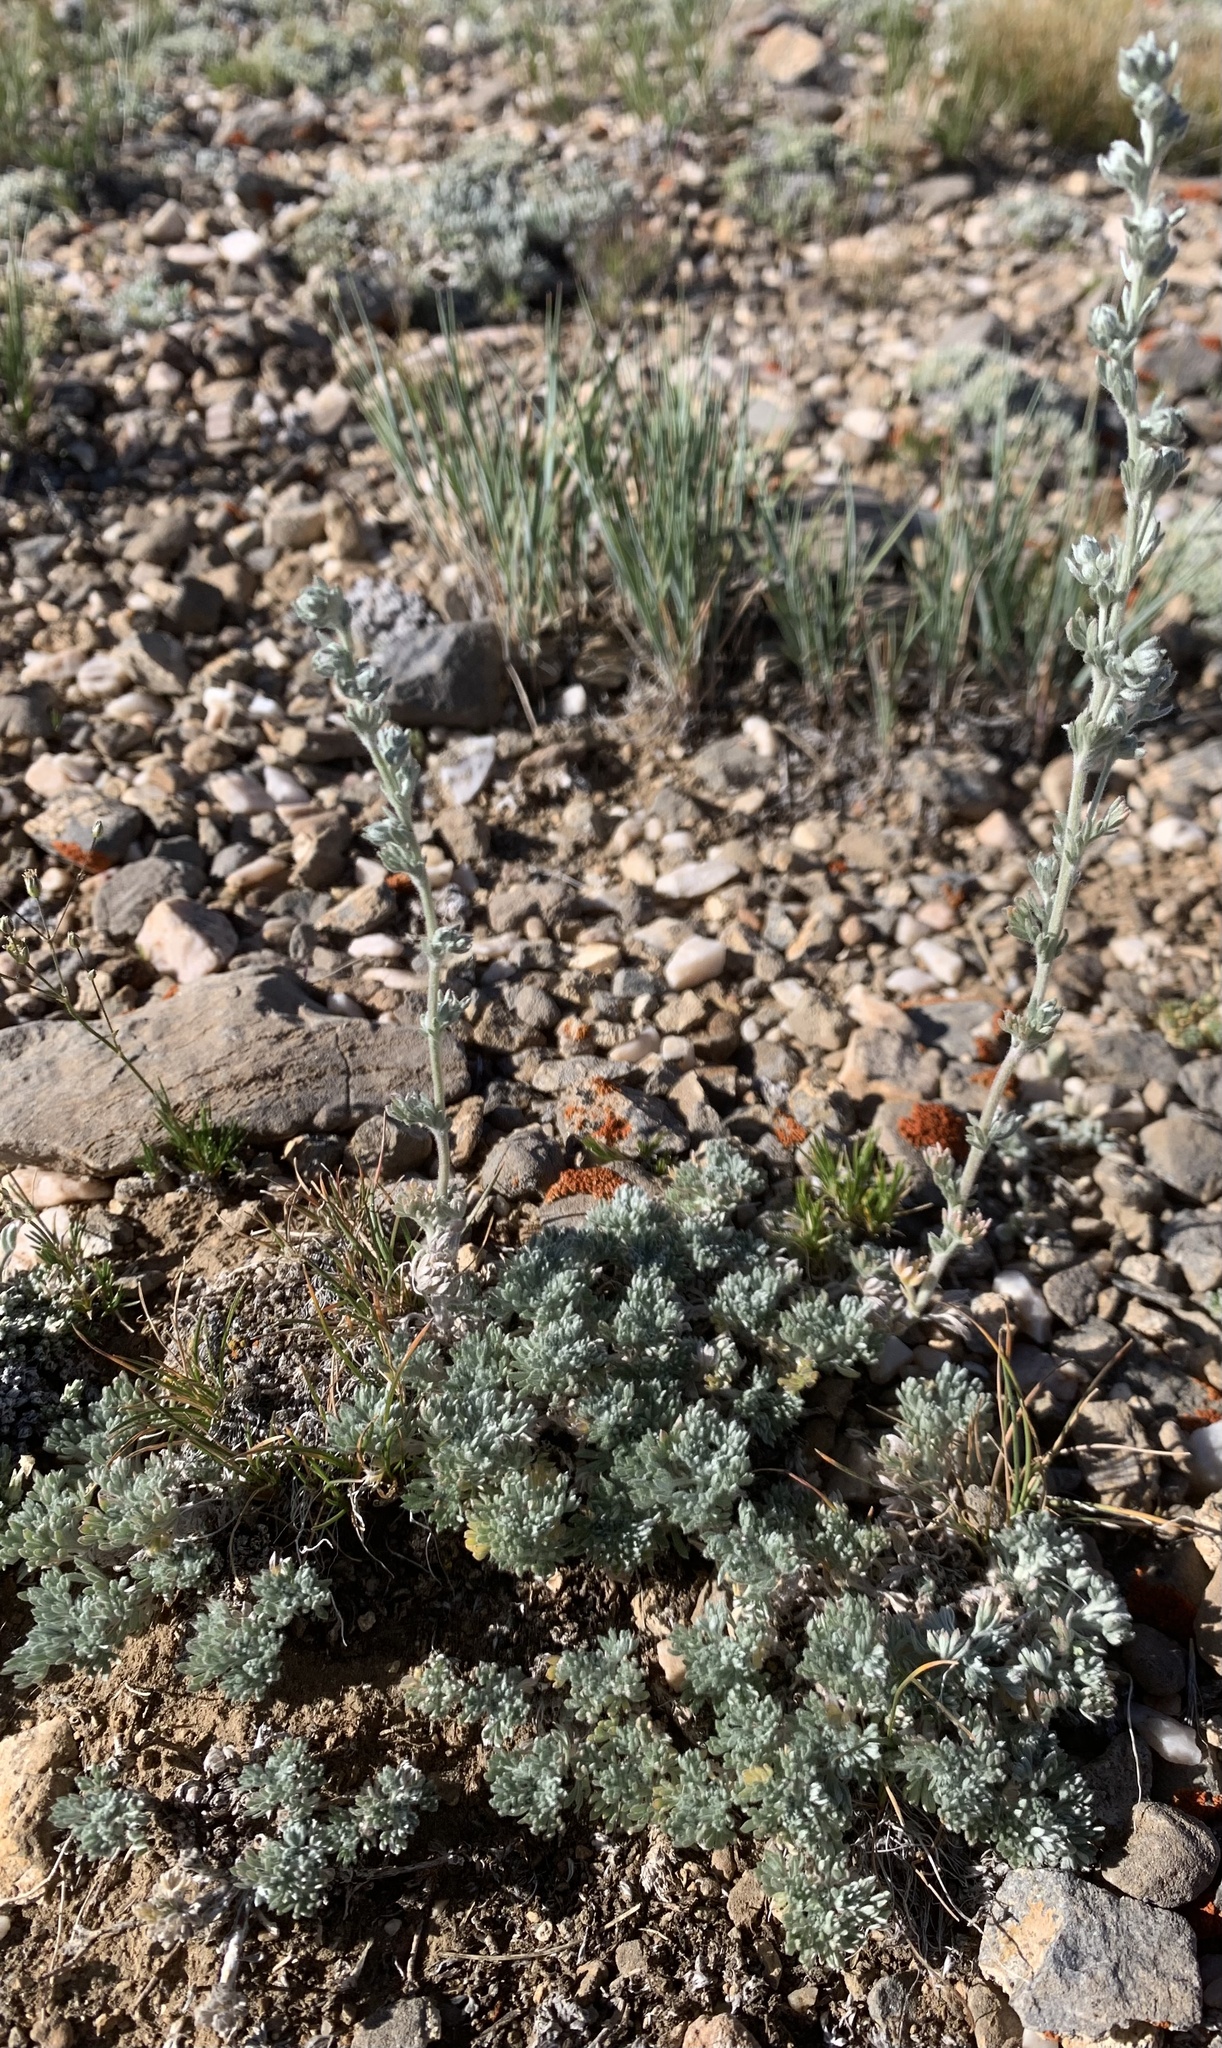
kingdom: Plantae
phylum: Tracheophyta
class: Magnoliopsida
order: Asterales
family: Asteraceae
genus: Artemisia
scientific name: Artemisia frigida
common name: Prairie sagewort
